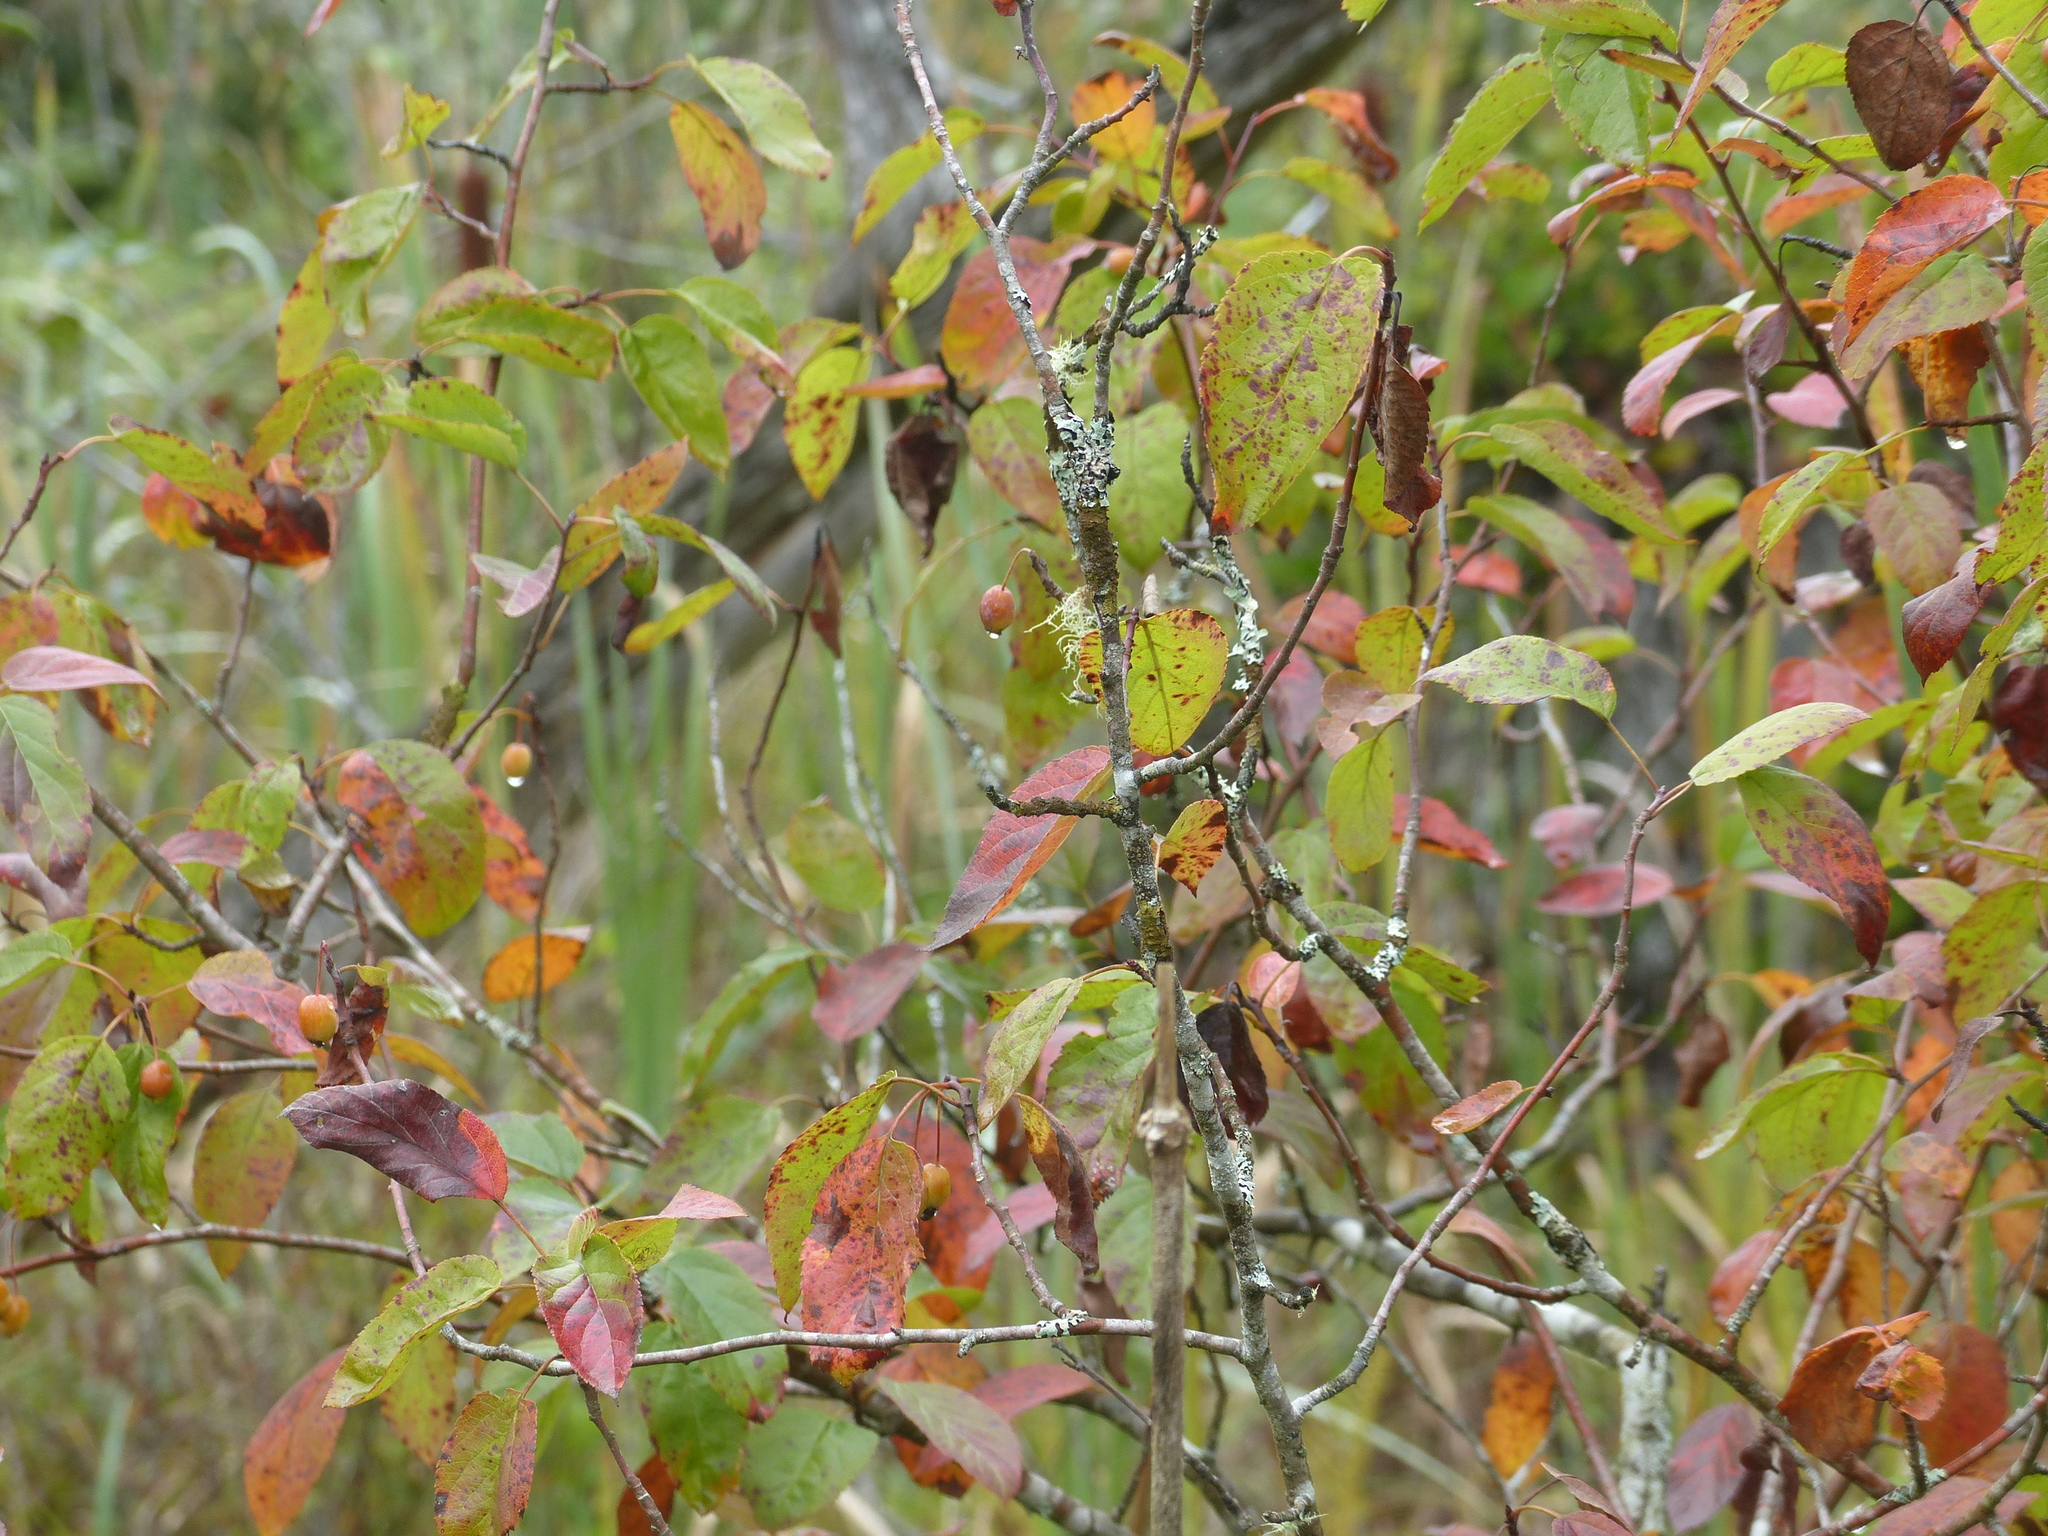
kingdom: Plantae
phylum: Tracheophyta
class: Magnoliopsida
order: Rosales
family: Rosaceae
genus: Malus
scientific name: Malus fusca
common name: Oregon crab apple
